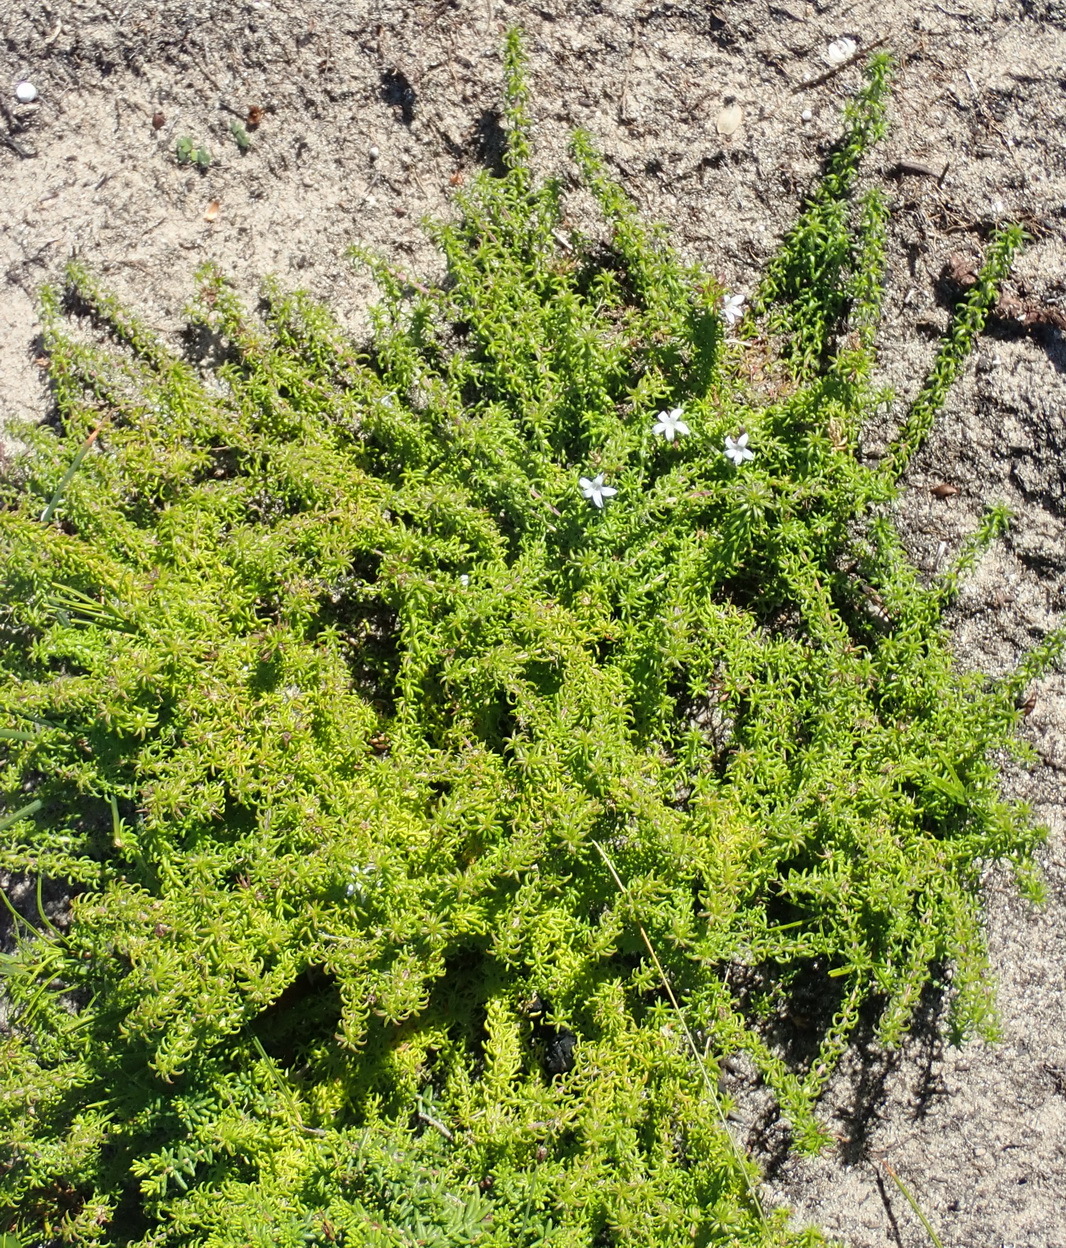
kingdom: Plantae
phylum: Tracheophyta
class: Magnoliopsida
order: Asterales
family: Campanulaceae
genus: Wahlenbergia
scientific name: Wahlenbergia thunbergii
